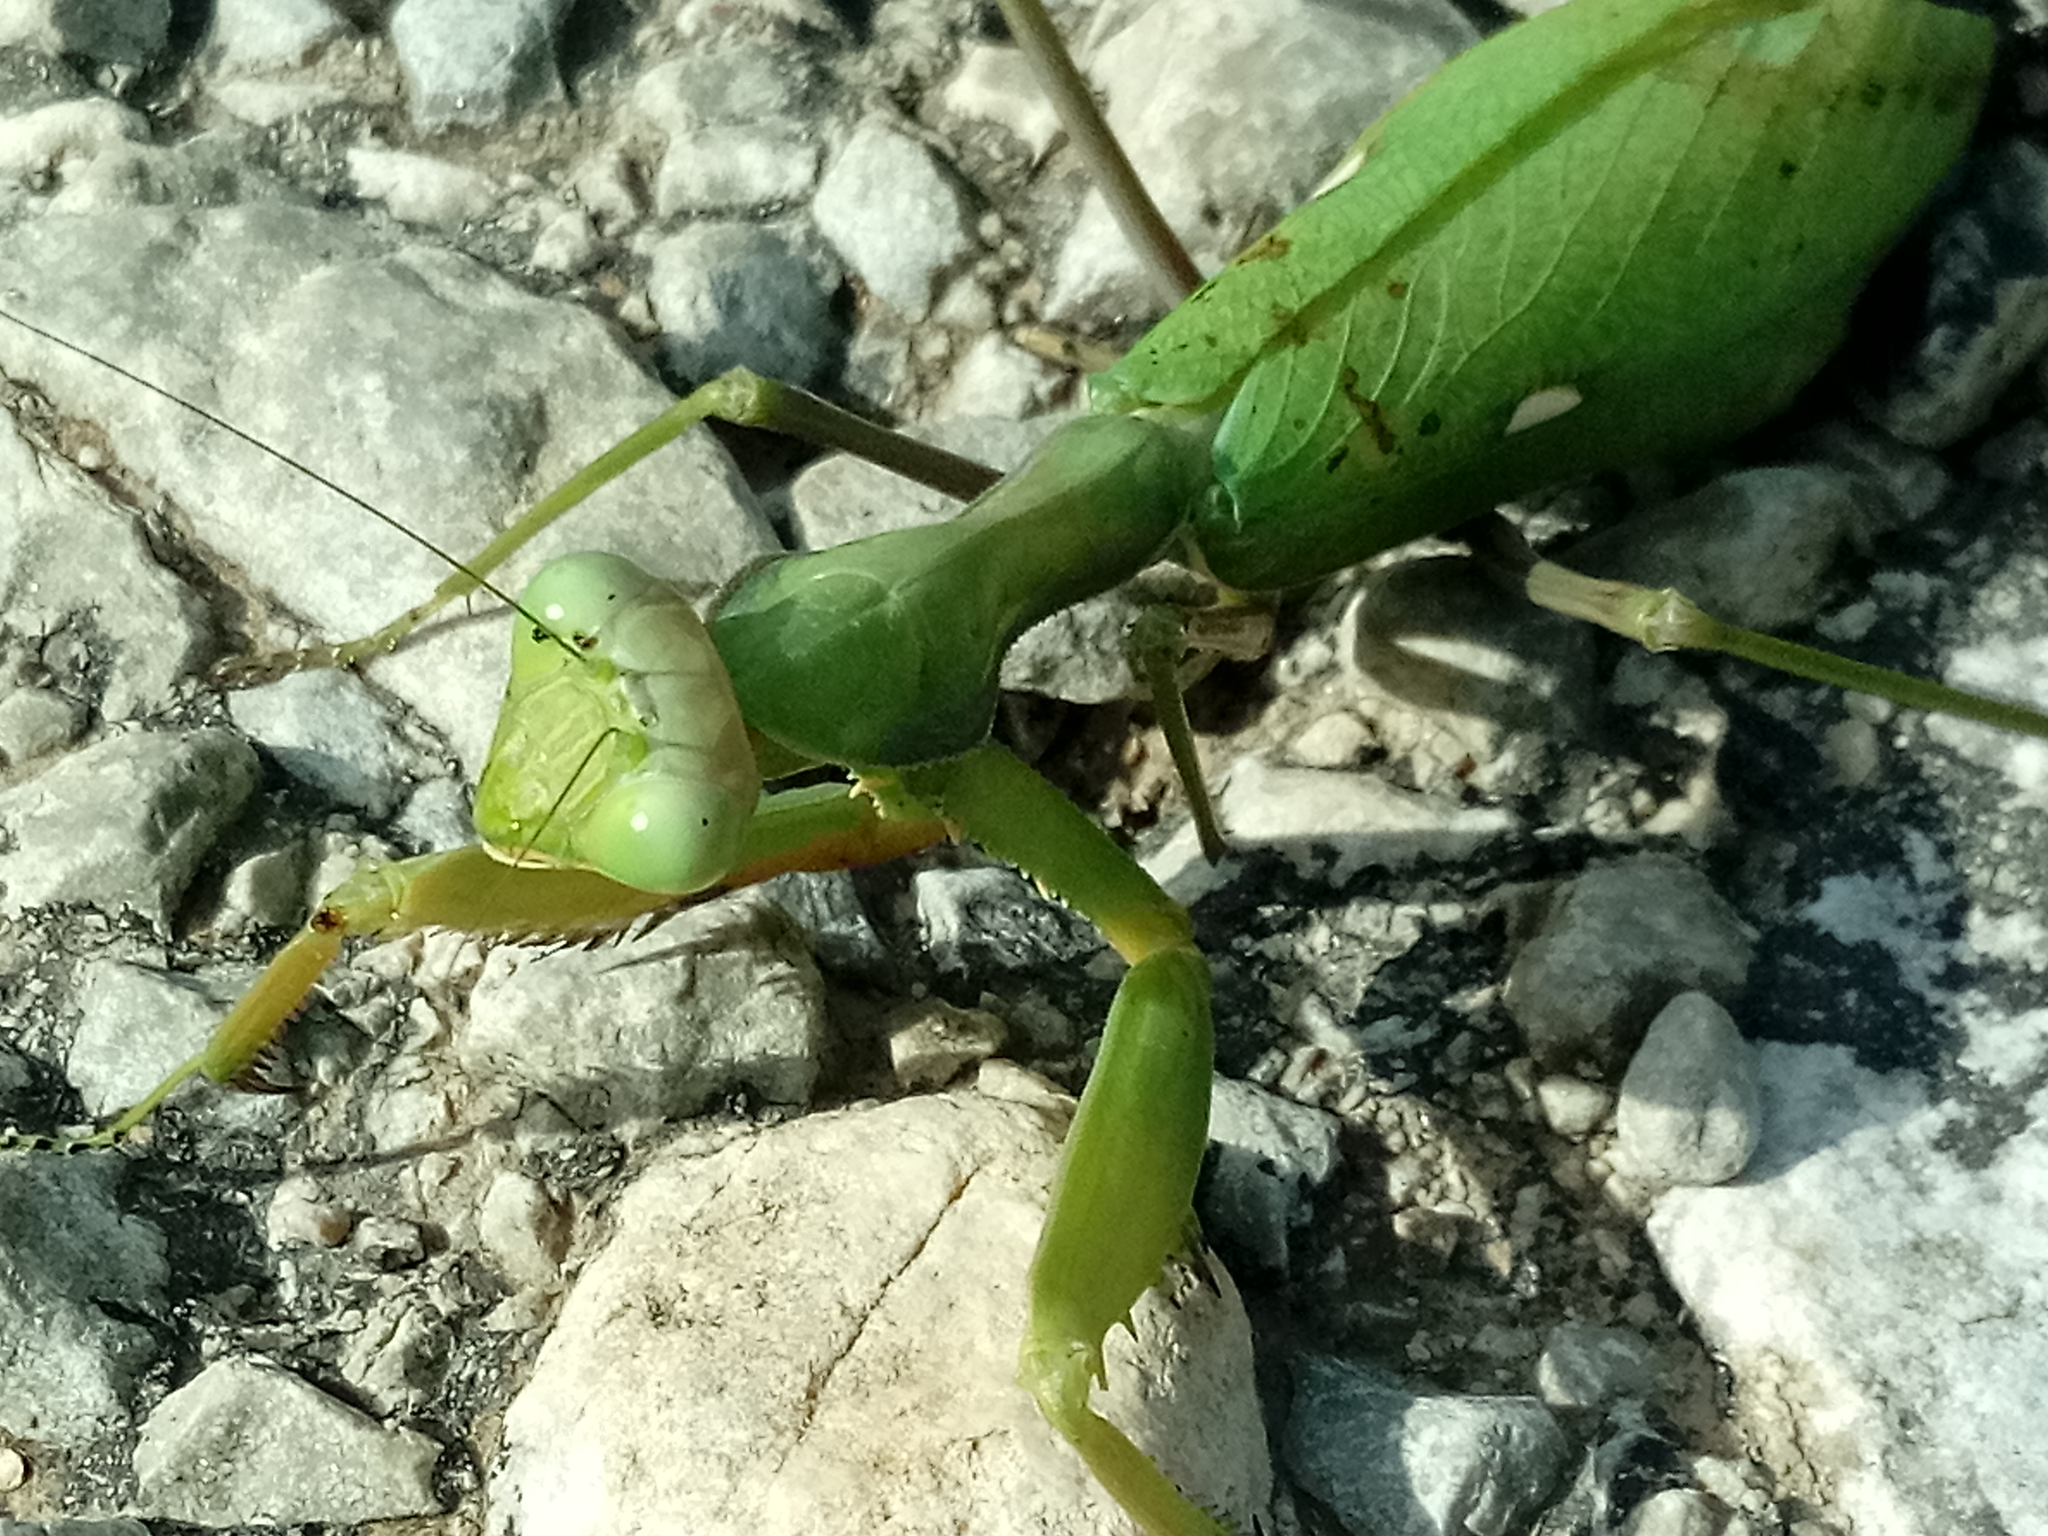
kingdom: Animalia
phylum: Arthropoda
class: Insecta
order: Mantodea
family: Mantidae
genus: Sphodromantis
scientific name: Sphodromantis viridis
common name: Giant african mantis
